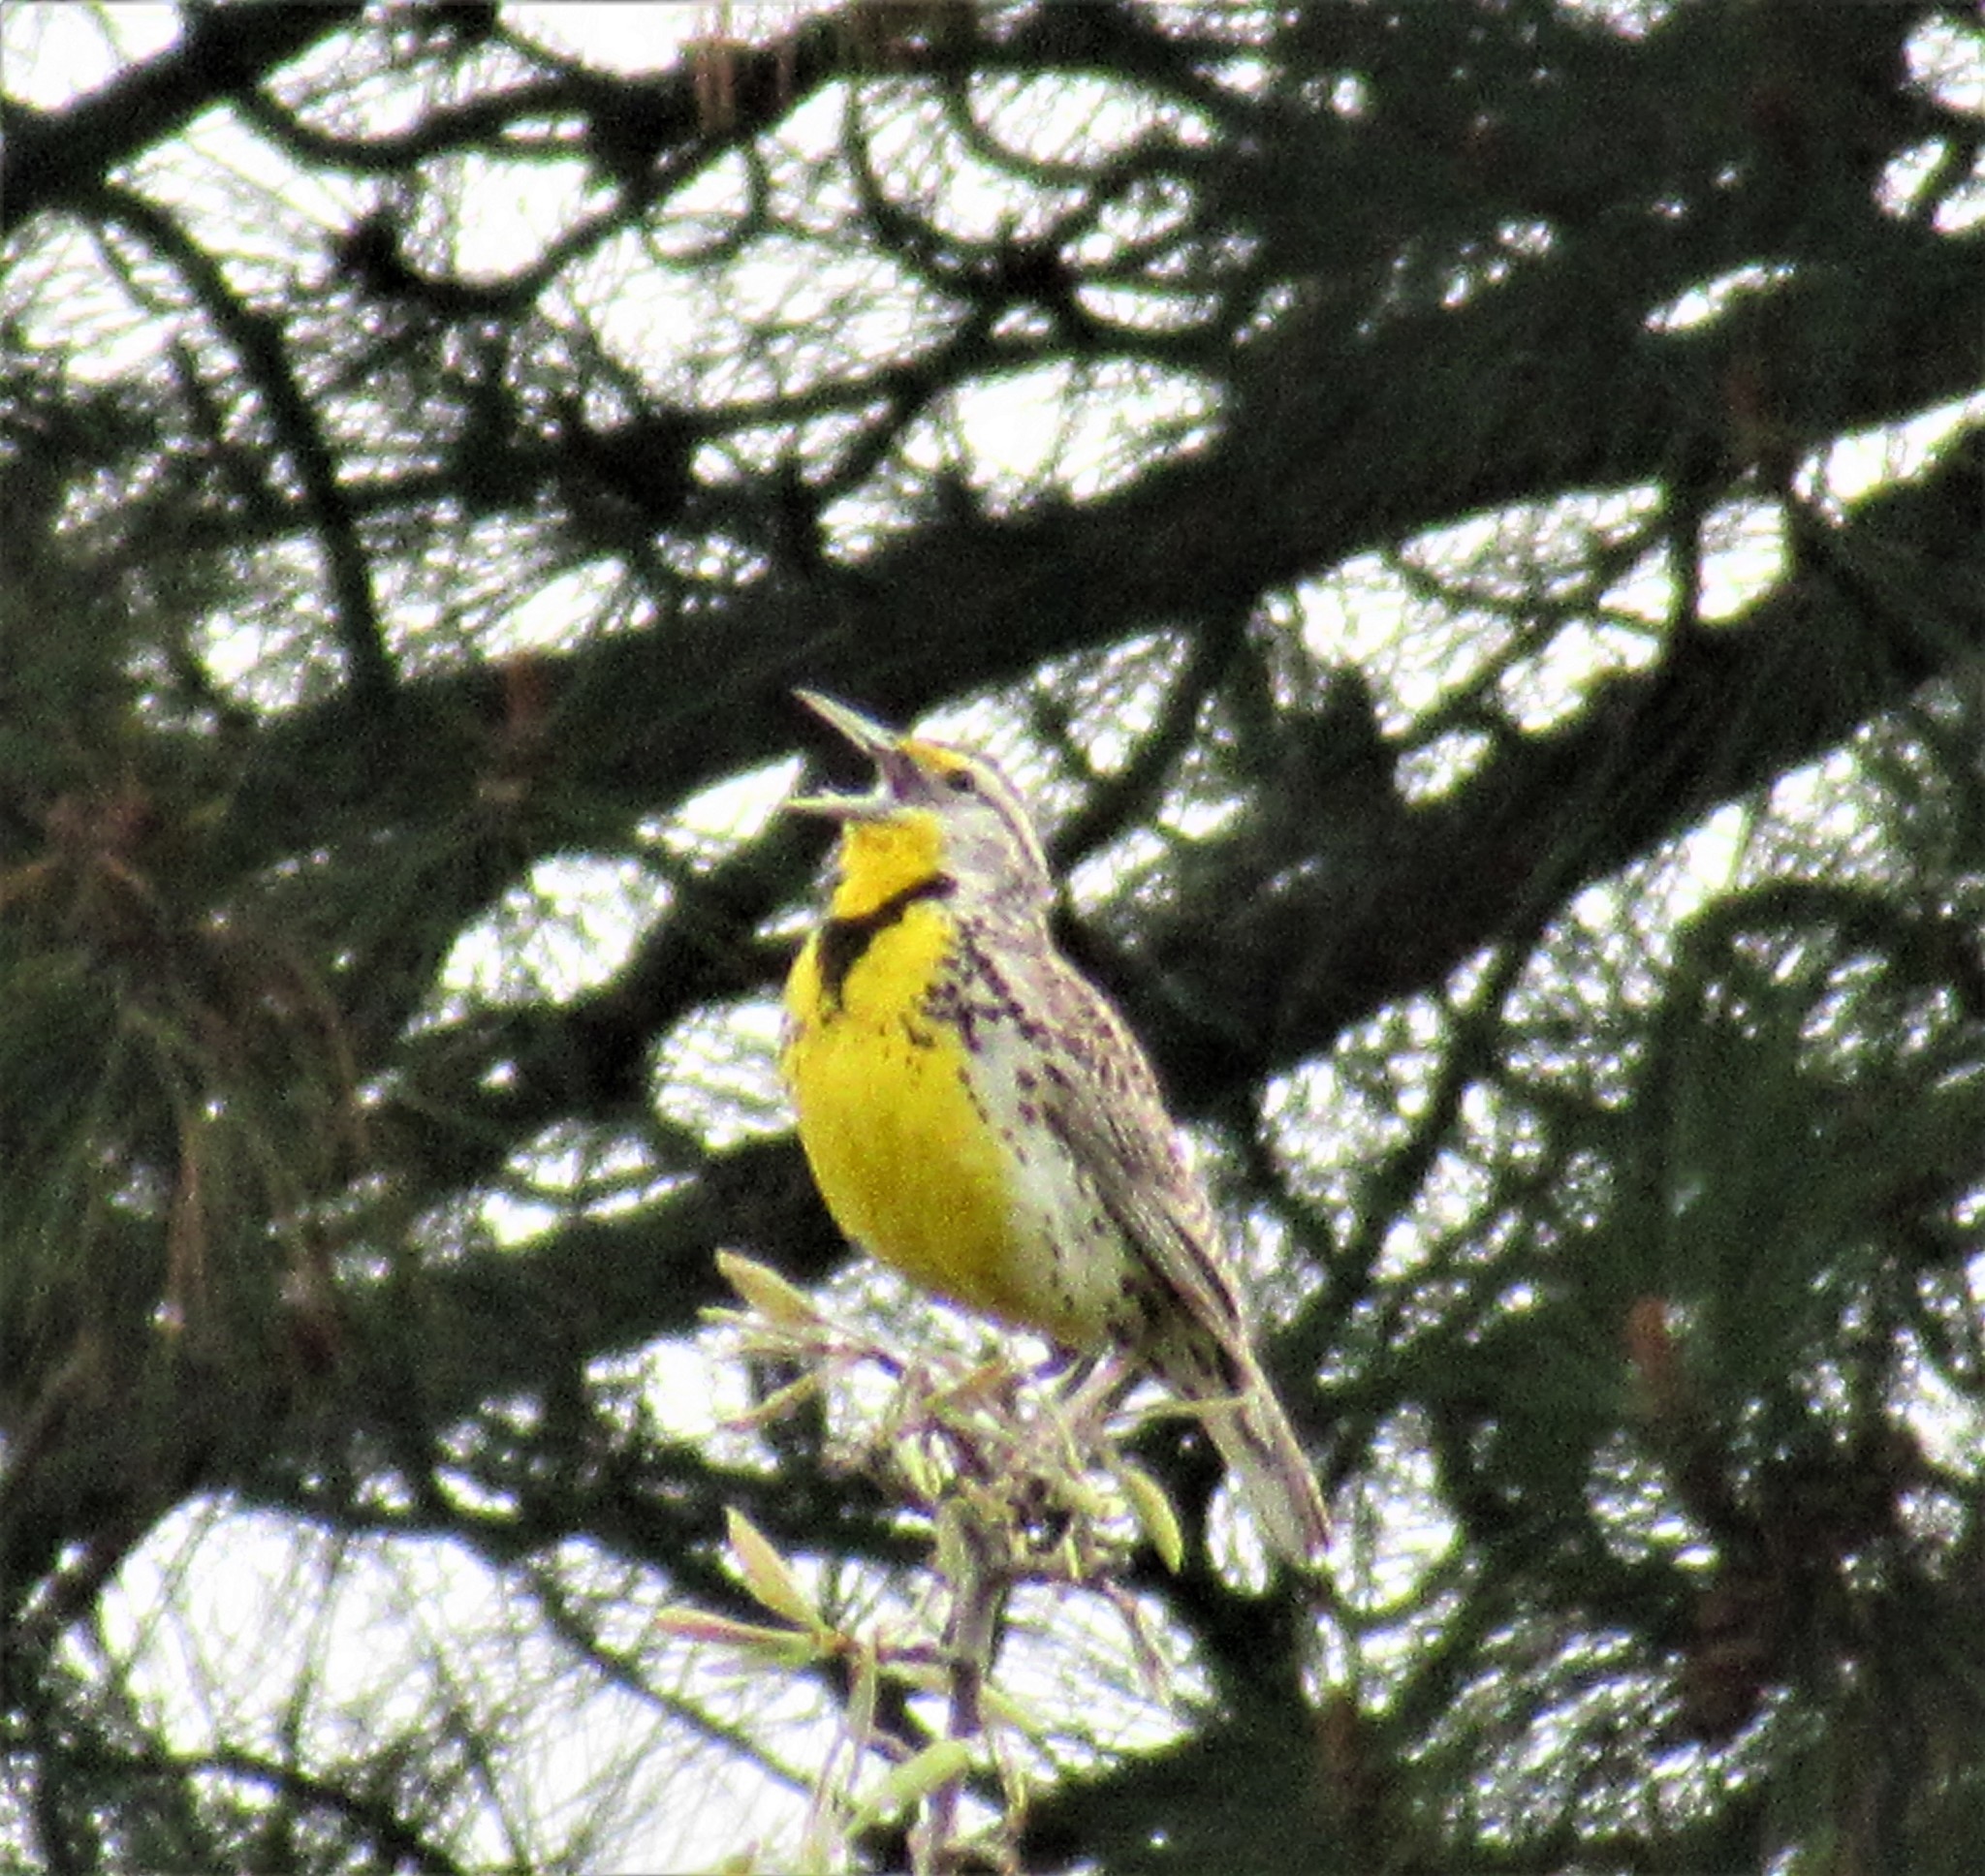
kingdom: Animalia
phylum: Chordata
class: Aves
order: Passeriformes
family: Icteridae
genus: Sturnella
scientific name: Sturnella neglecta
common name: Western meadowlark
